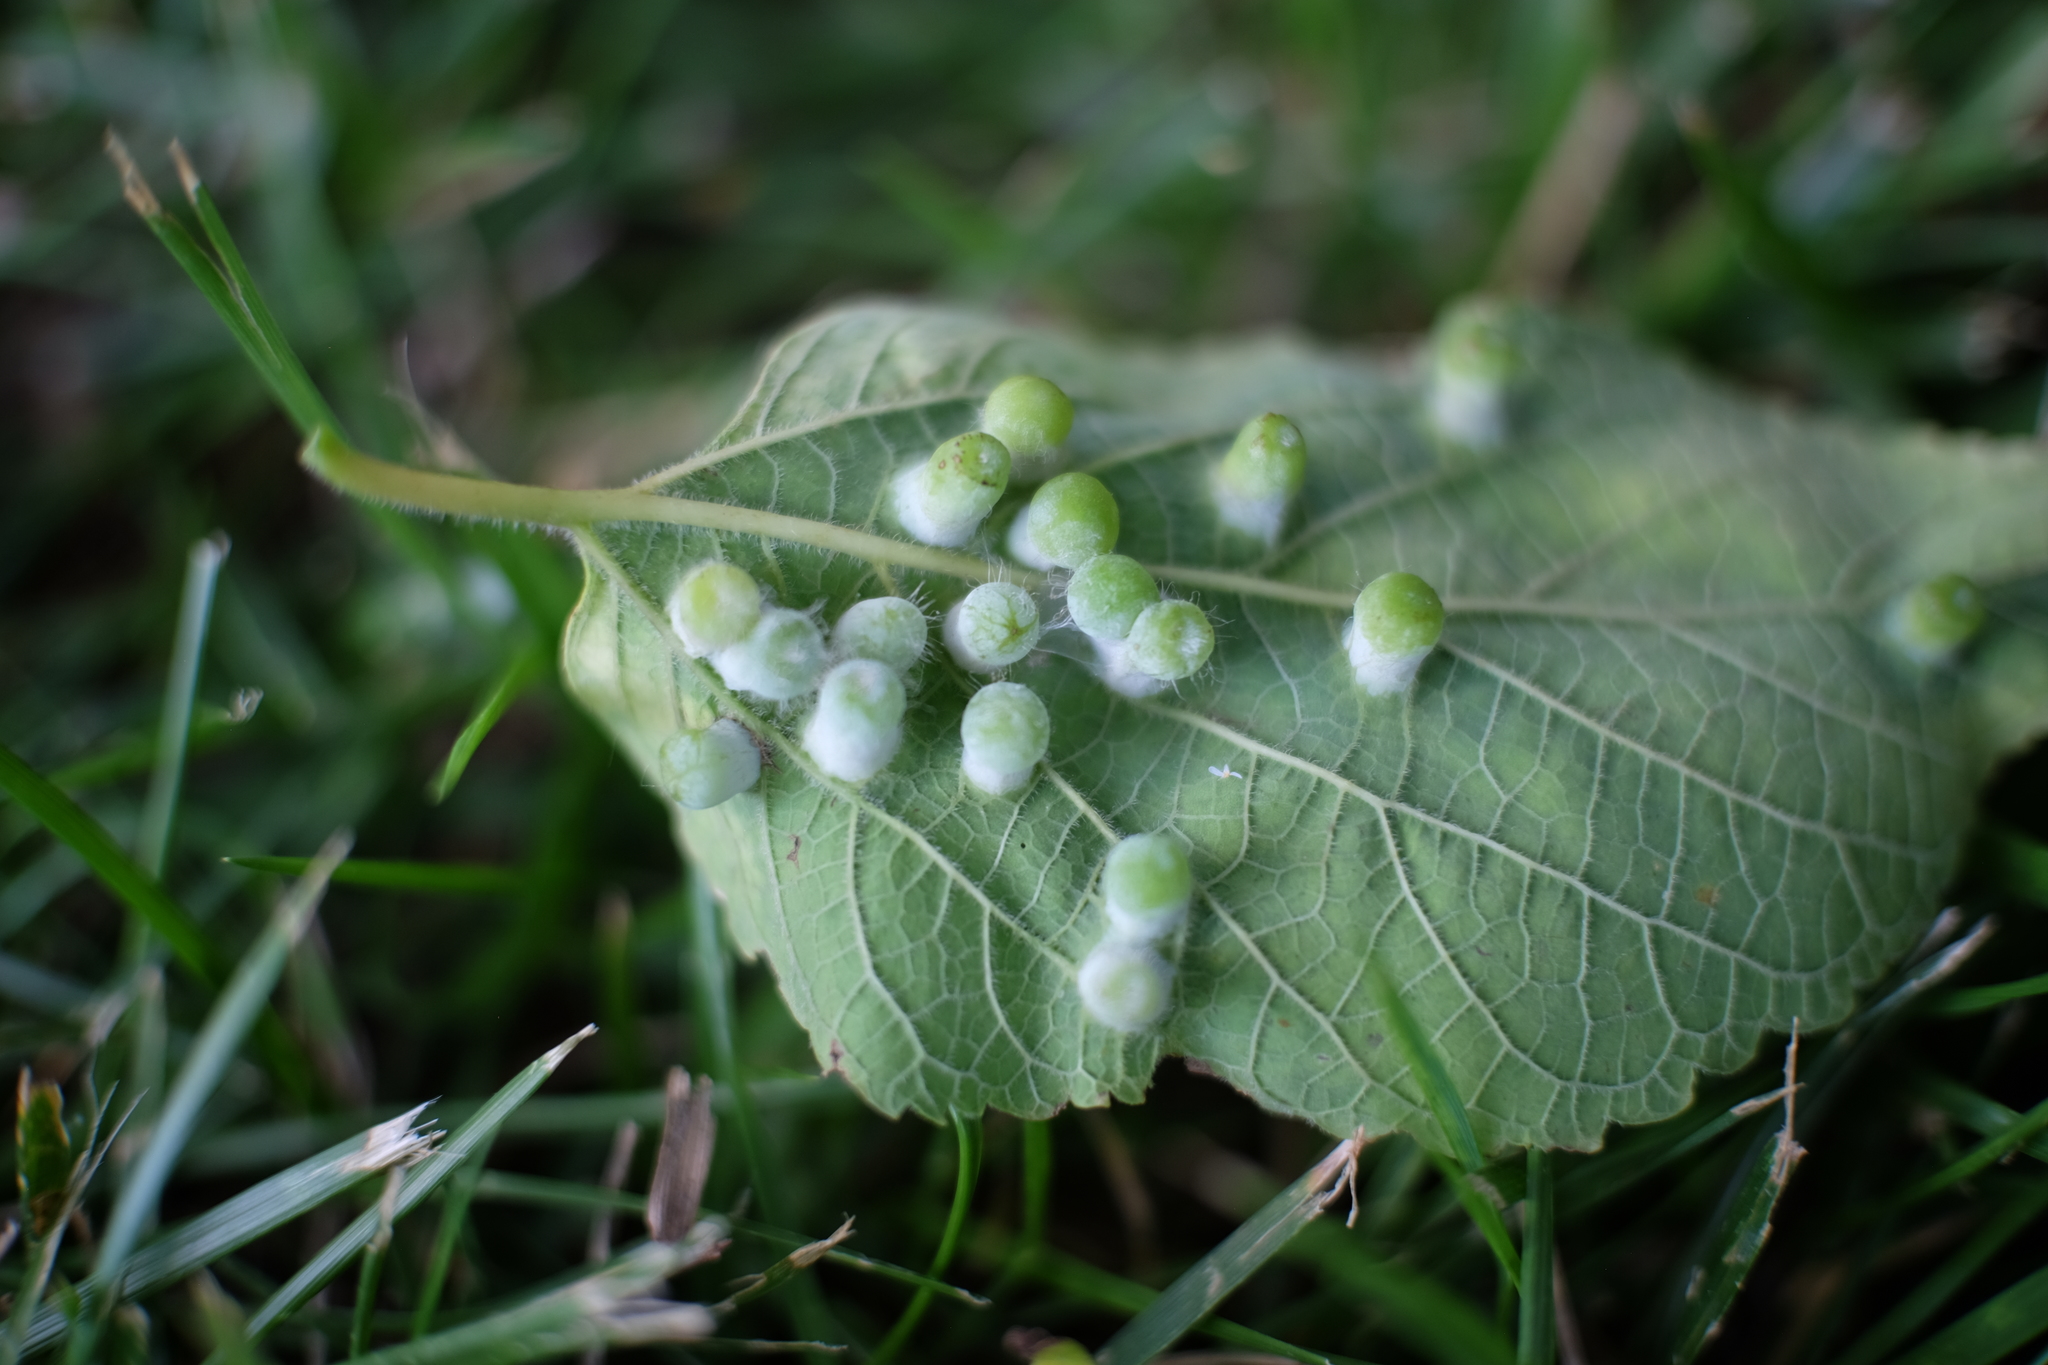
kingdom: Animalia
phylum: Arthropoda
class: Insecta
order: Hemiptera
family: Aphalaridae
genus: Pachypsylla
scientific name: Pachypsylla celtidismamma
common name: Hackberry nipplegall psyllid
